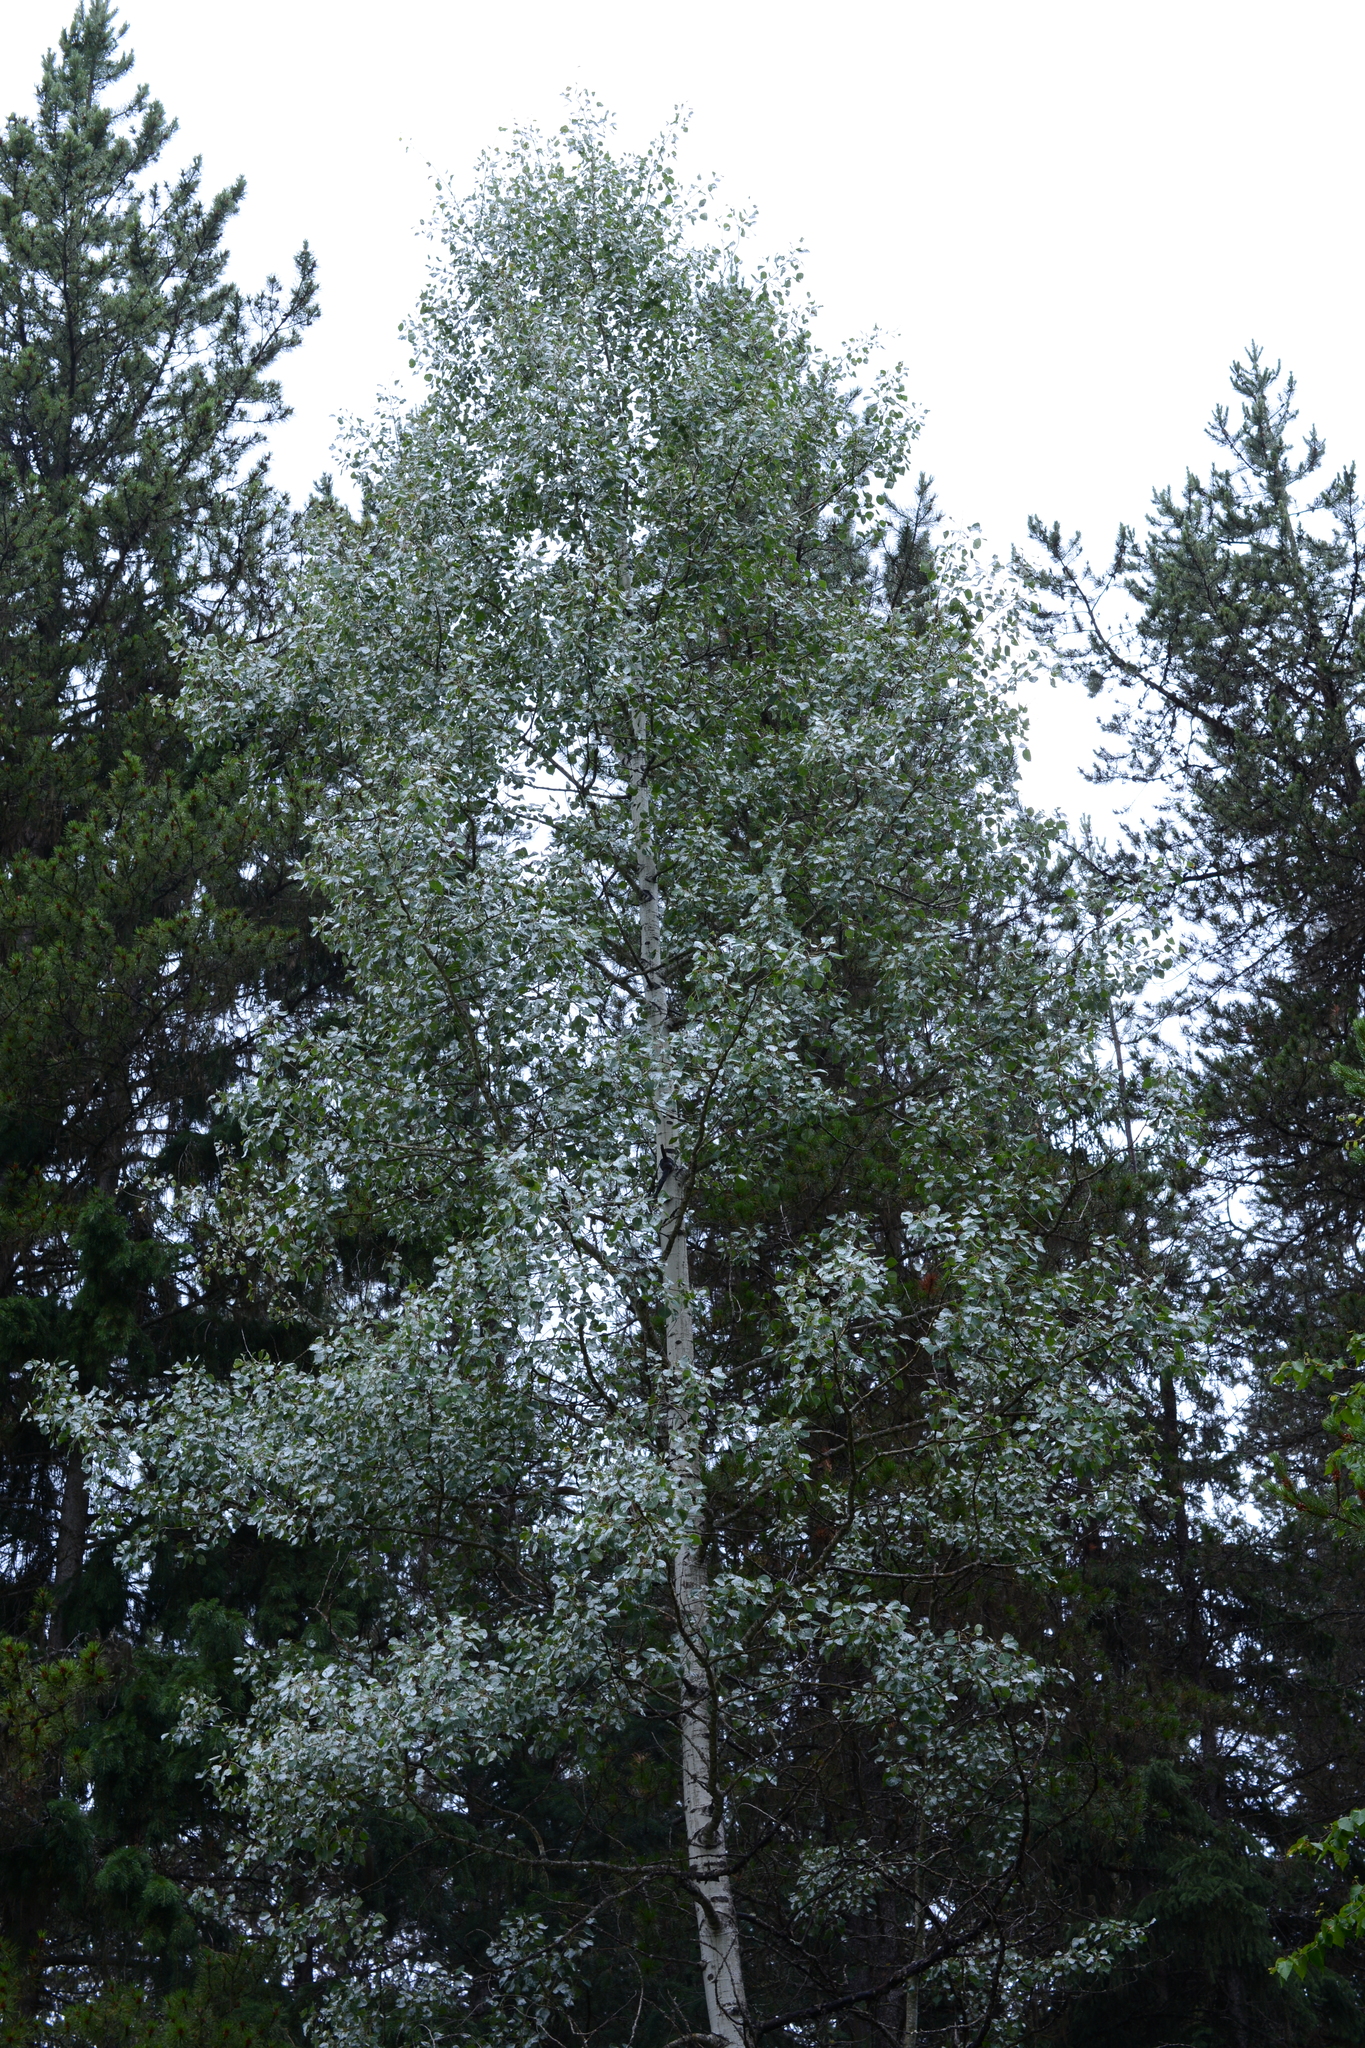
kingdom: Plantae
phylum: Tracheophyta
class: Magnoliopsida
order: Malpighiales
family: Salicaceae
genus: Populus
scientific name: Populus tremuloides
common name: Quaking aspen
